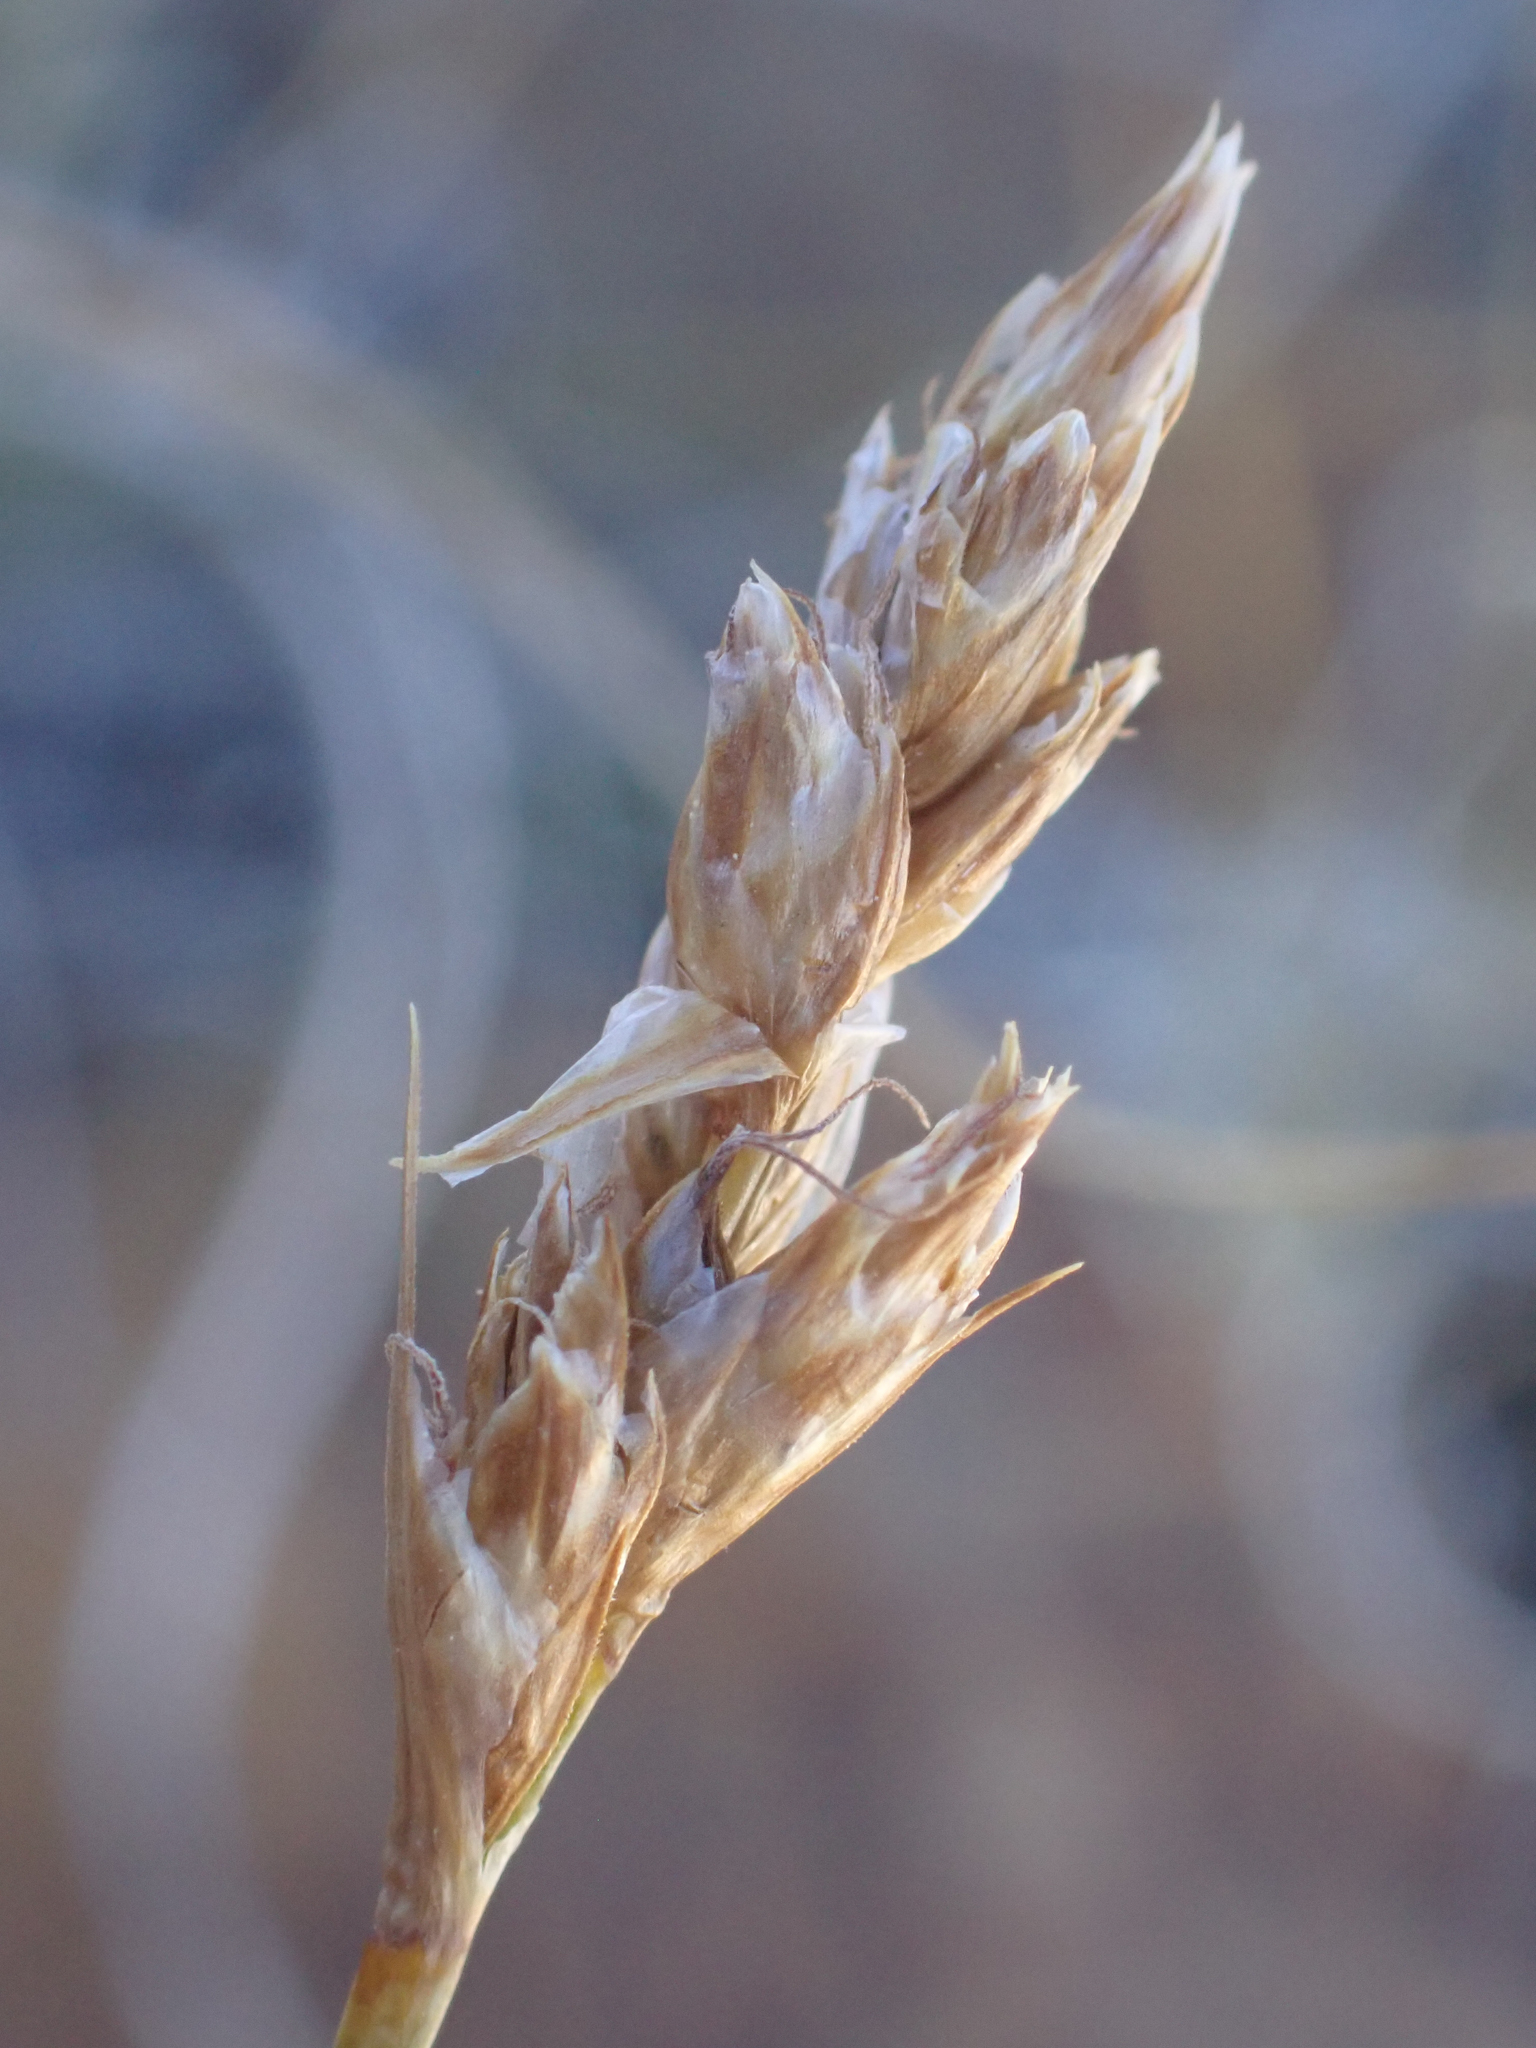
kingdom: Plantae
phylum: Tracheophyta
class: Liliopsida
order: Poales
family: Cyperaceae
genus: Carex
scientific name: Carex duriuscula
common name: Involute-leaved sedge
